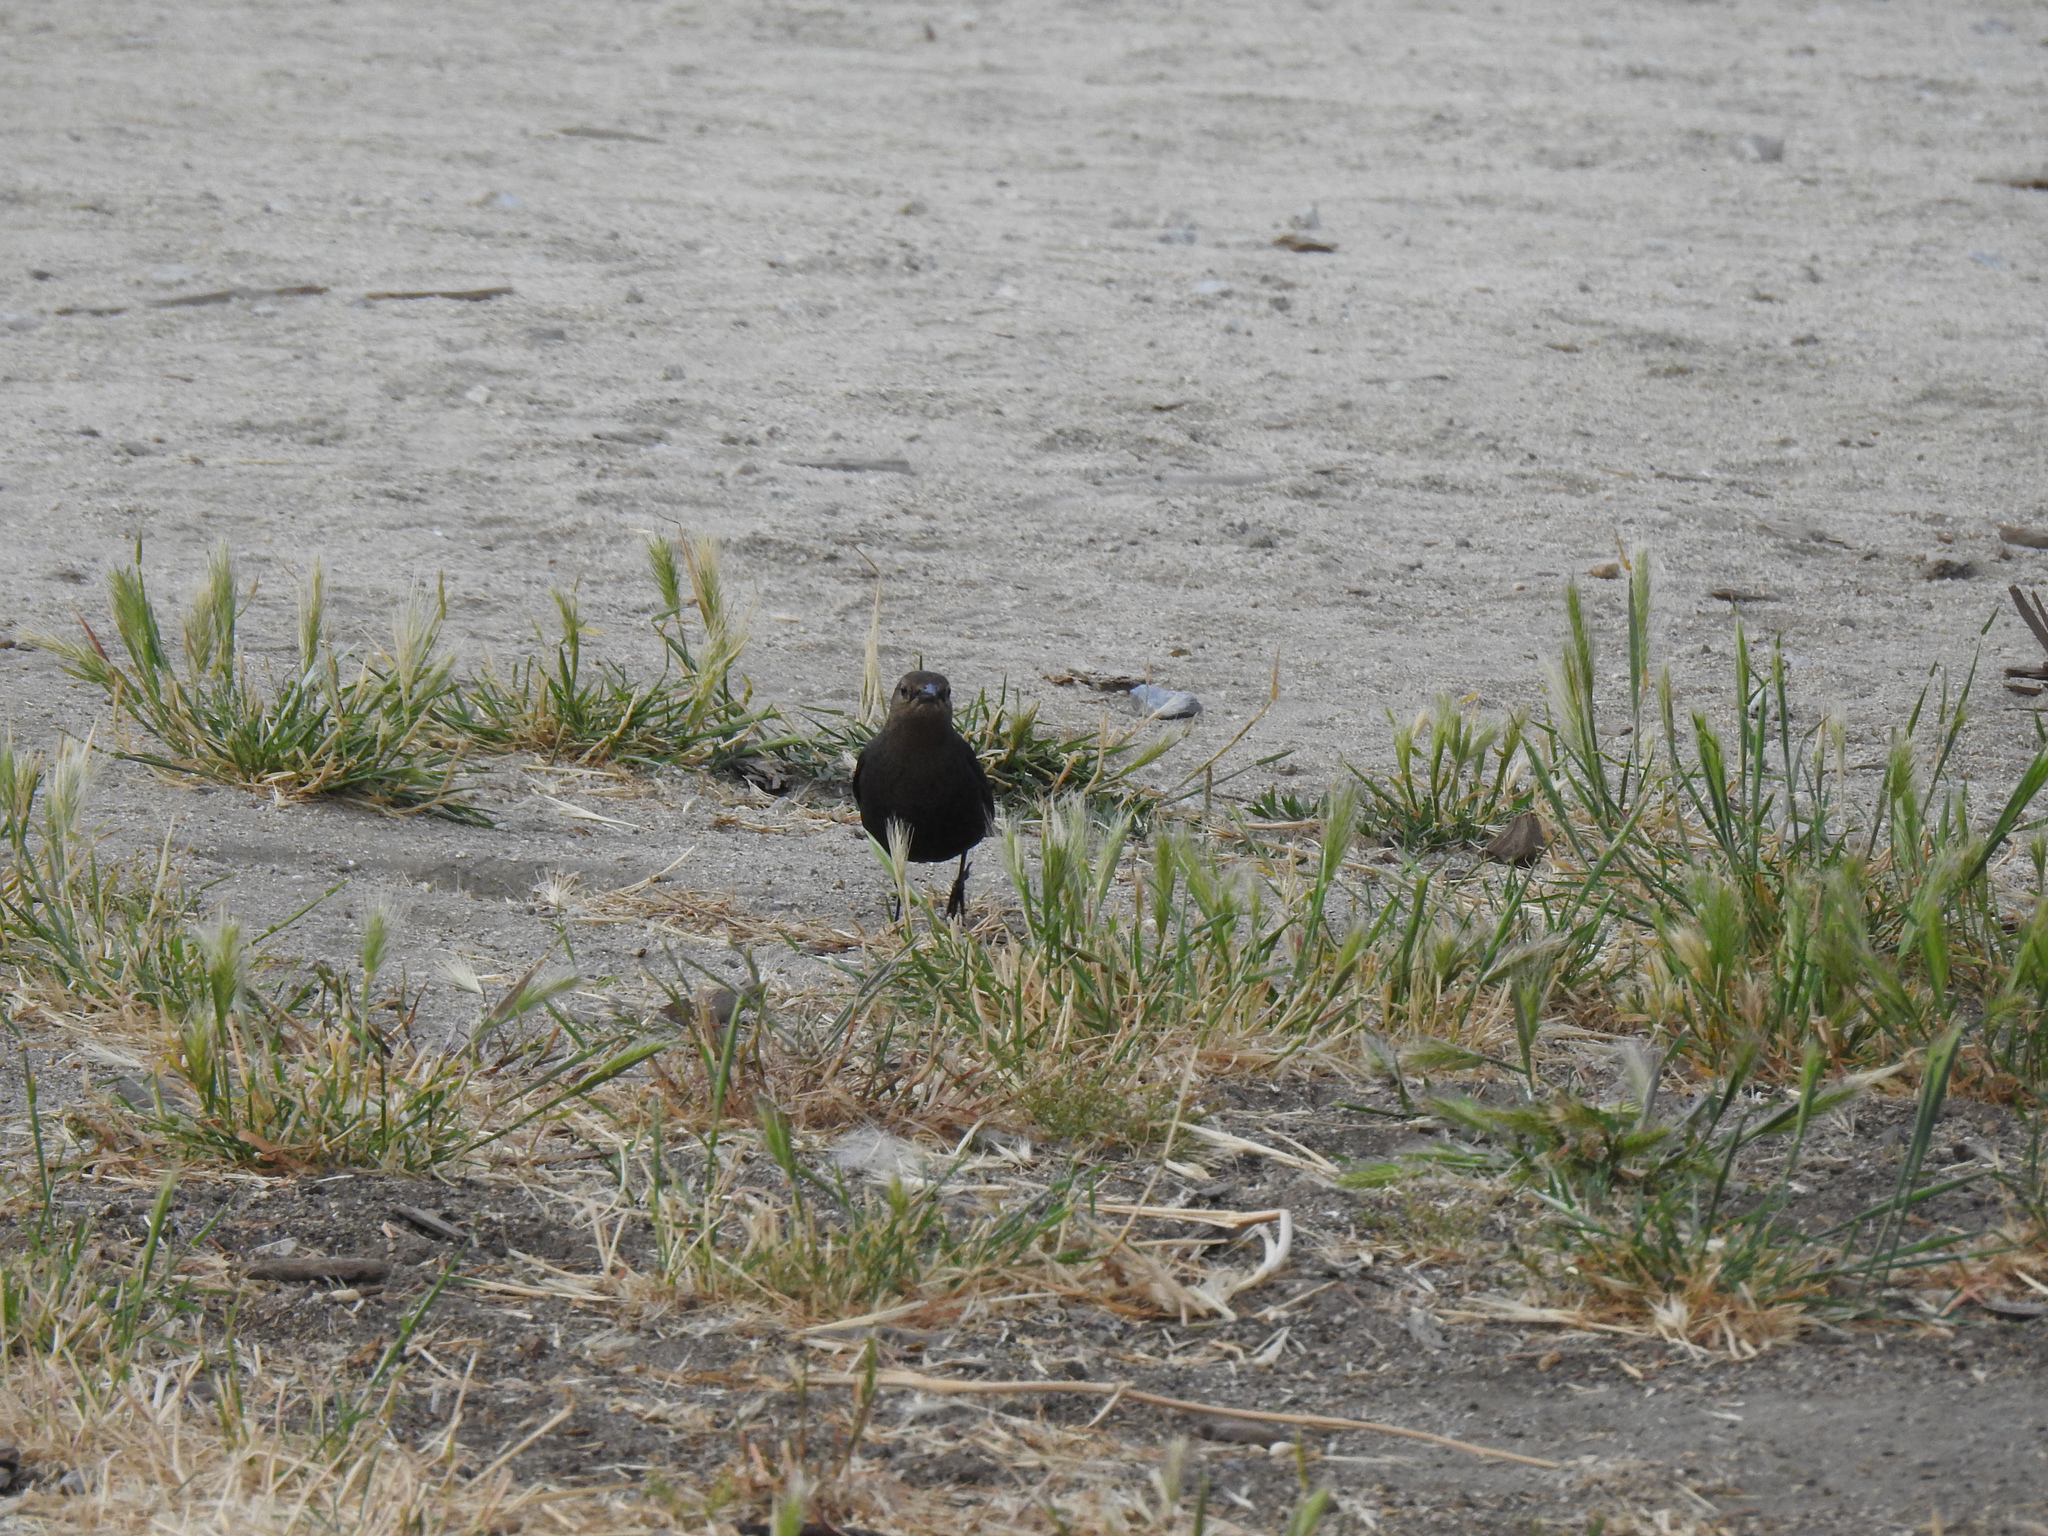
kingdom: Animalia
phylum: Chordata
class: Aves
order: Passeriformes
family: Icteridae
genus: Euphagus
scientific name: Euphagus cyanocephalus
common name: Brewer's blackbird
